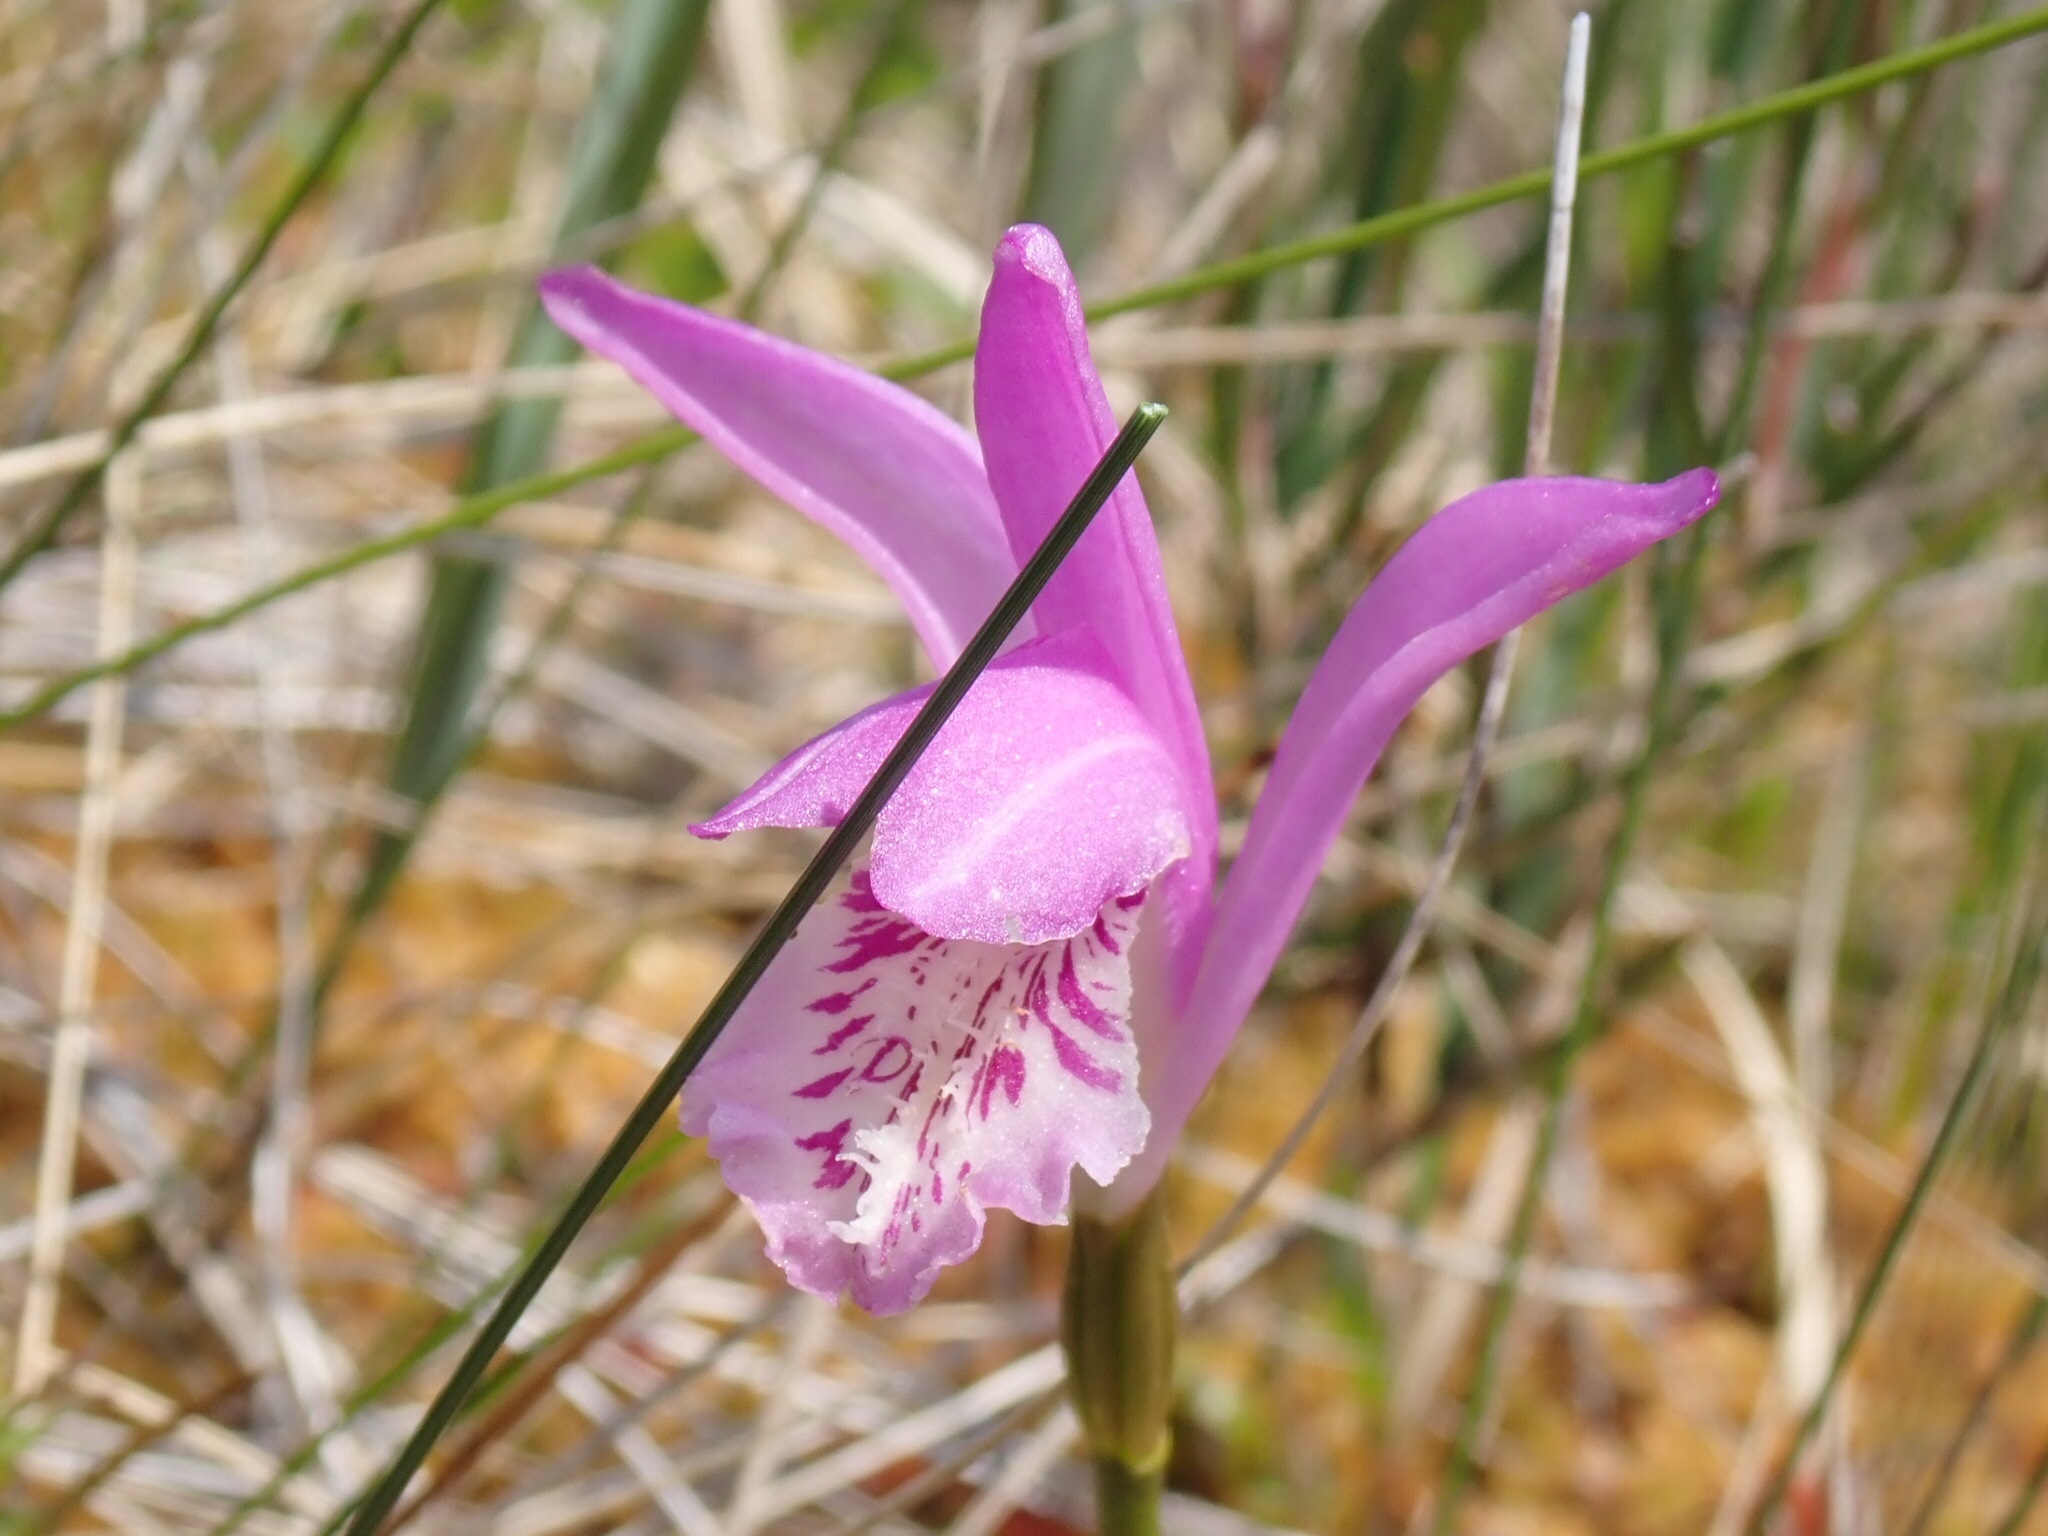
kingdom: Plantae
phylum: Tracheophyta
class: Liliopsida
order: Asparagales
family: Orchidaceae
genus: Arethusa
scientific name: Arethusa bulbosa
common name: Arethusa
